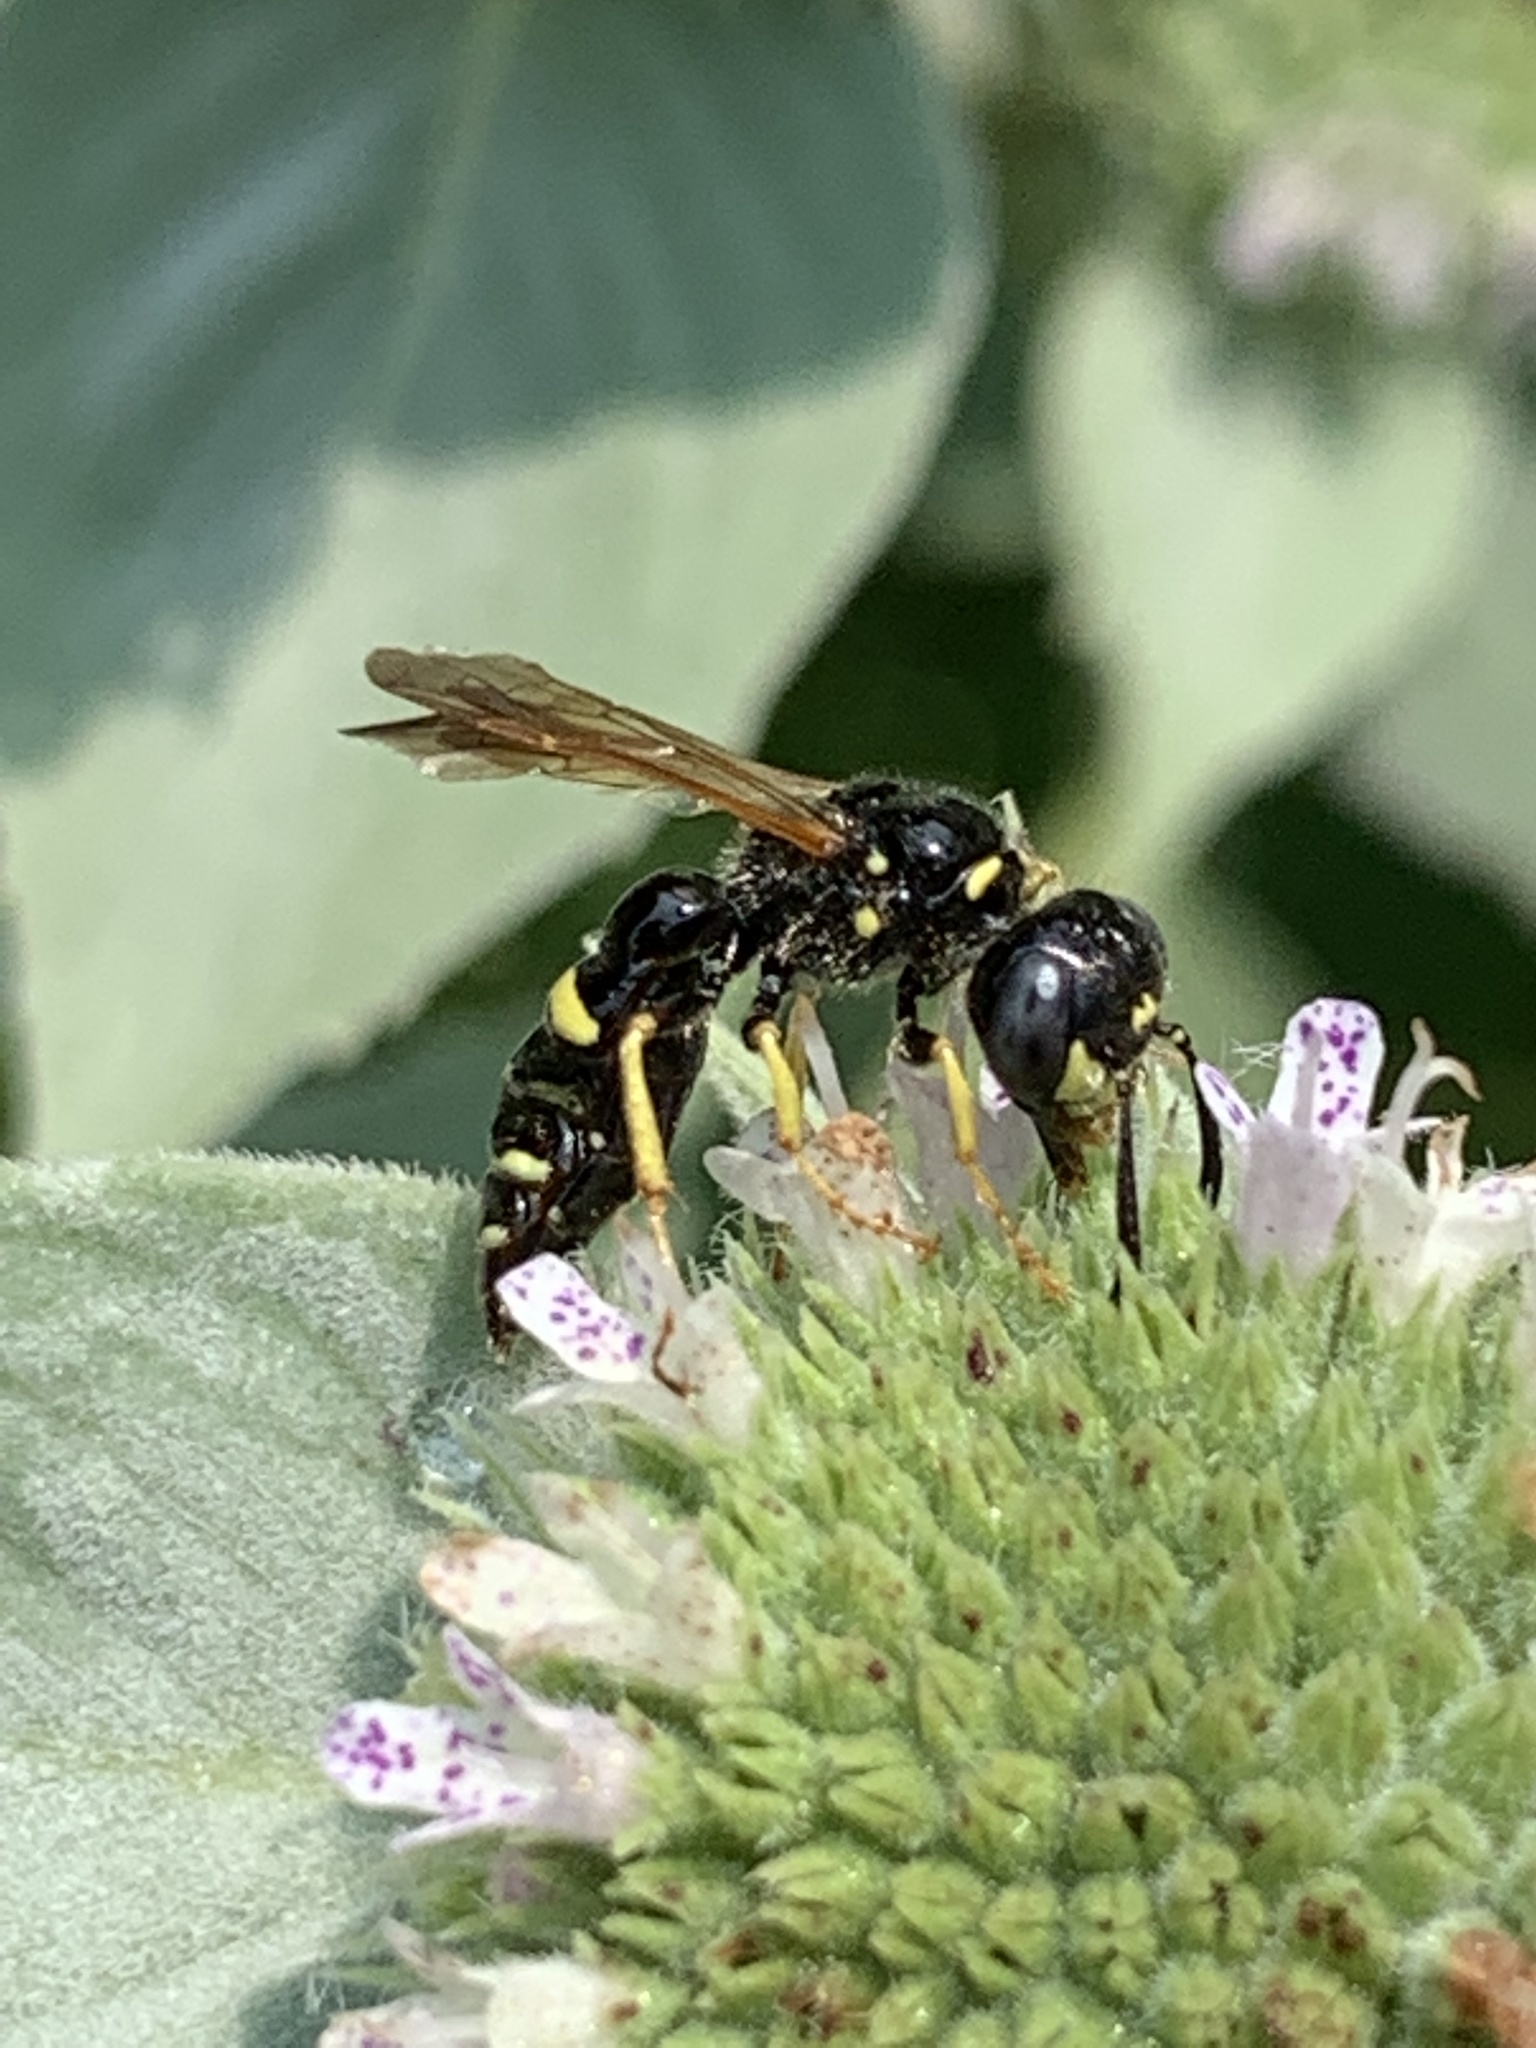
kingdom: Animalia
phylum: Arthropoda
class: Insecta
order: Hymenoptera
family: Crabronidae
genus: Philanthus
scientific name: Philanthus bilunatus
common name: Two moons beewolf
